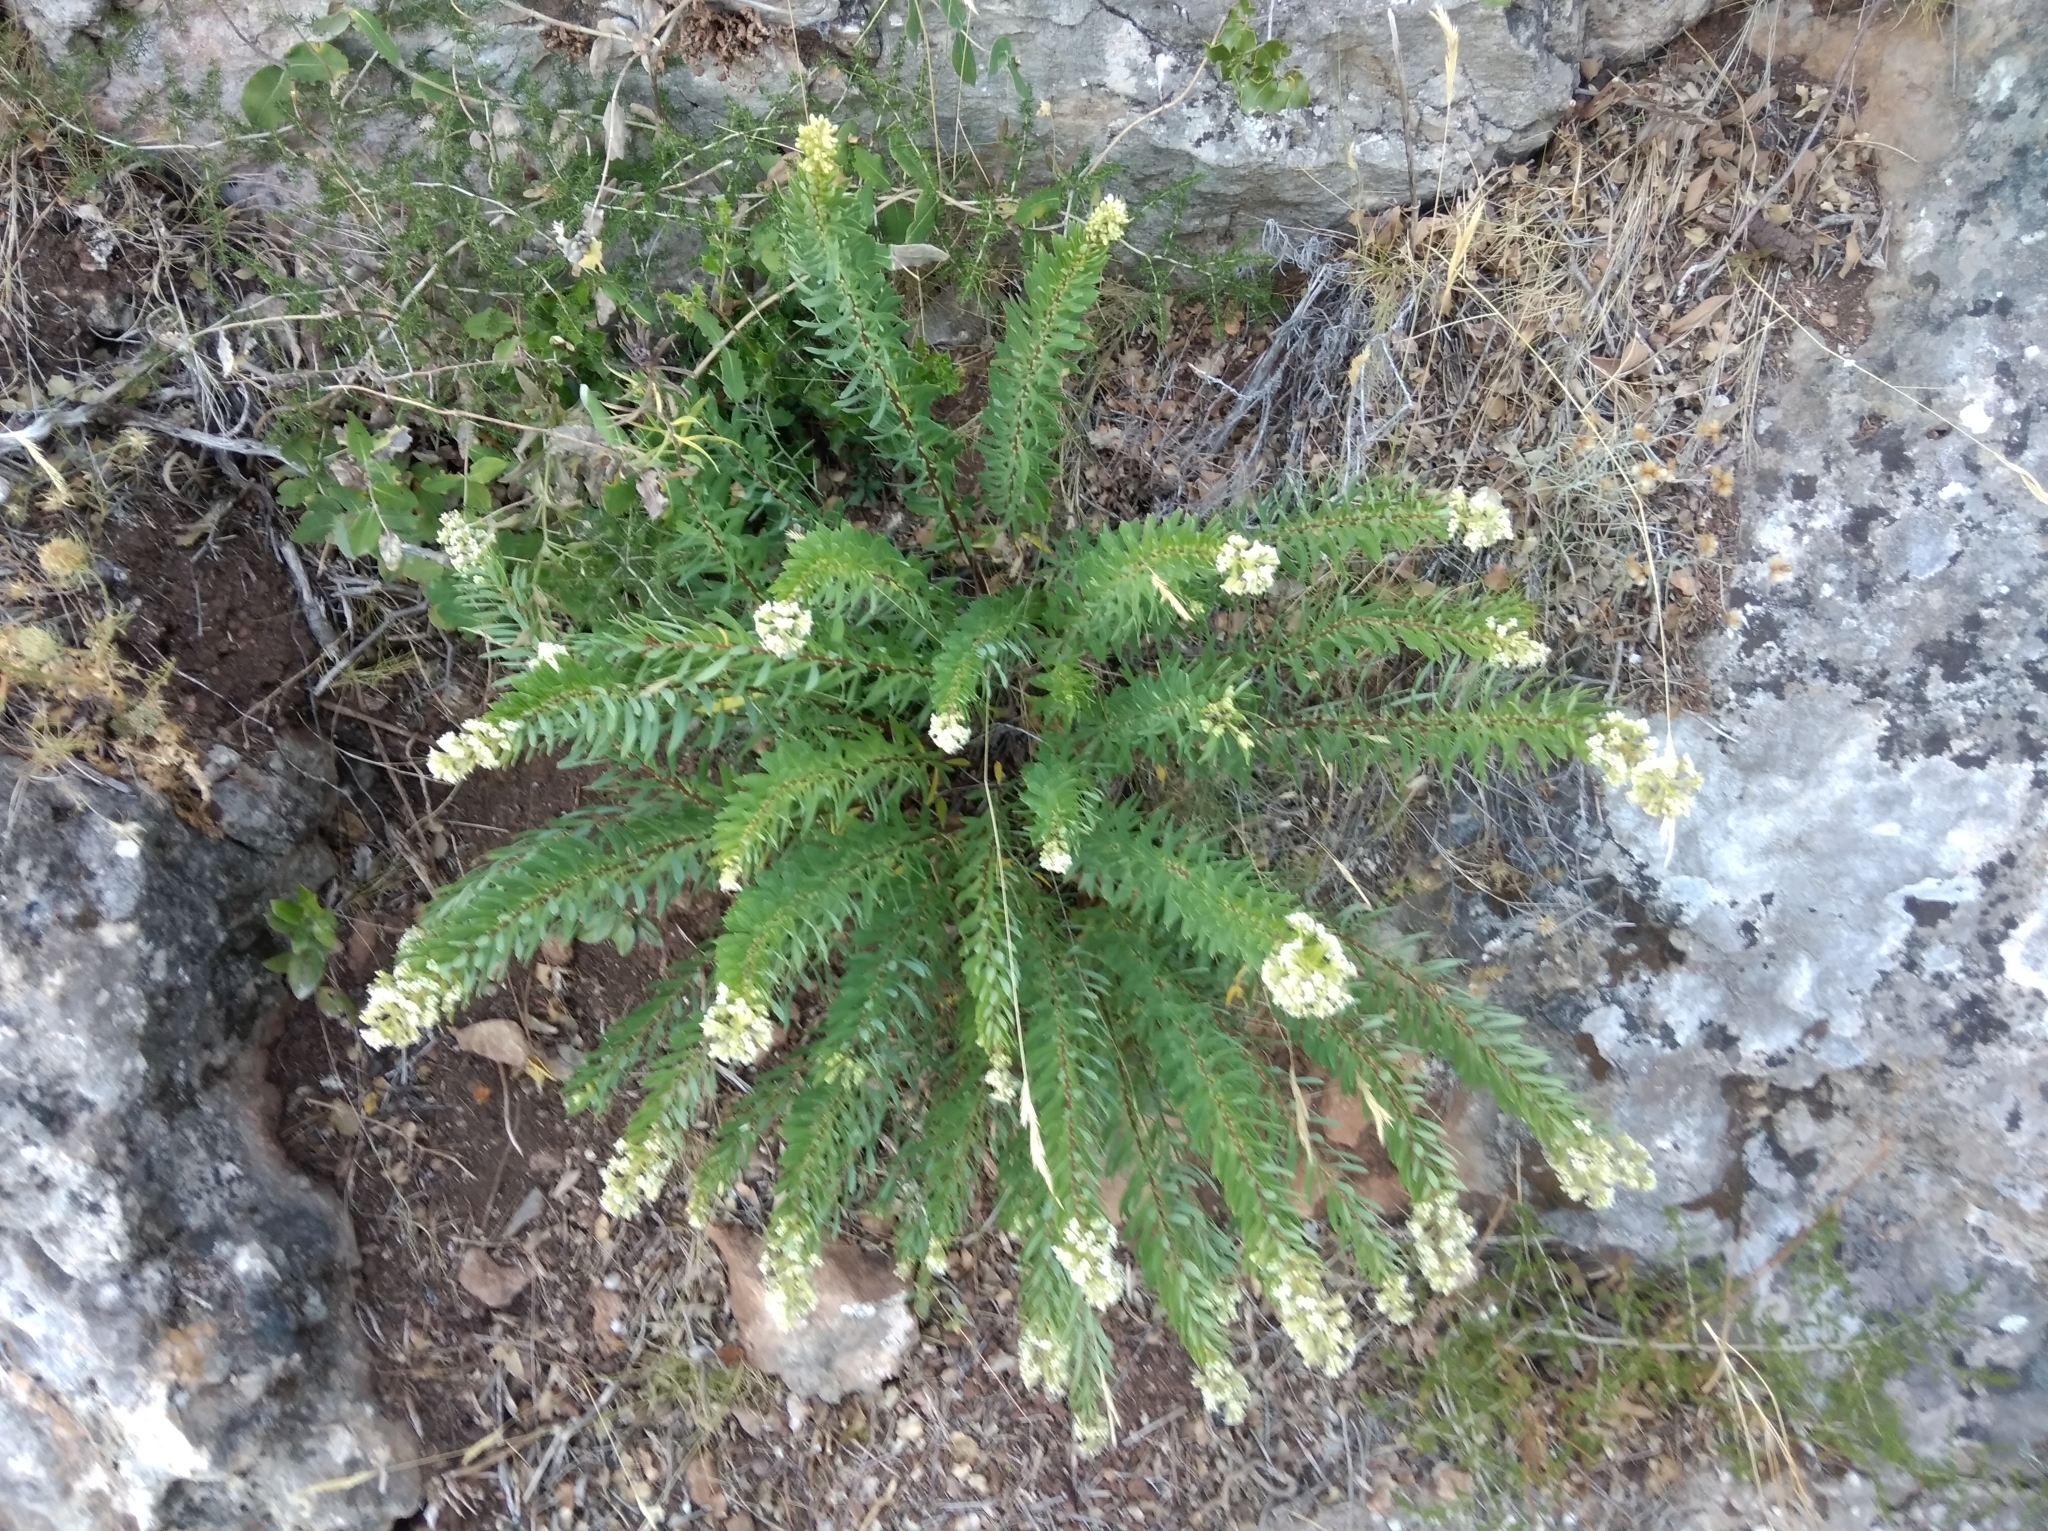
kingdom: Plantae
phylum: Tracheophyta
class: Magnoliopsida
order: Malvales
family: Thymelaeaceae
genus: Daphne
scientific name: Daphne gnidium
